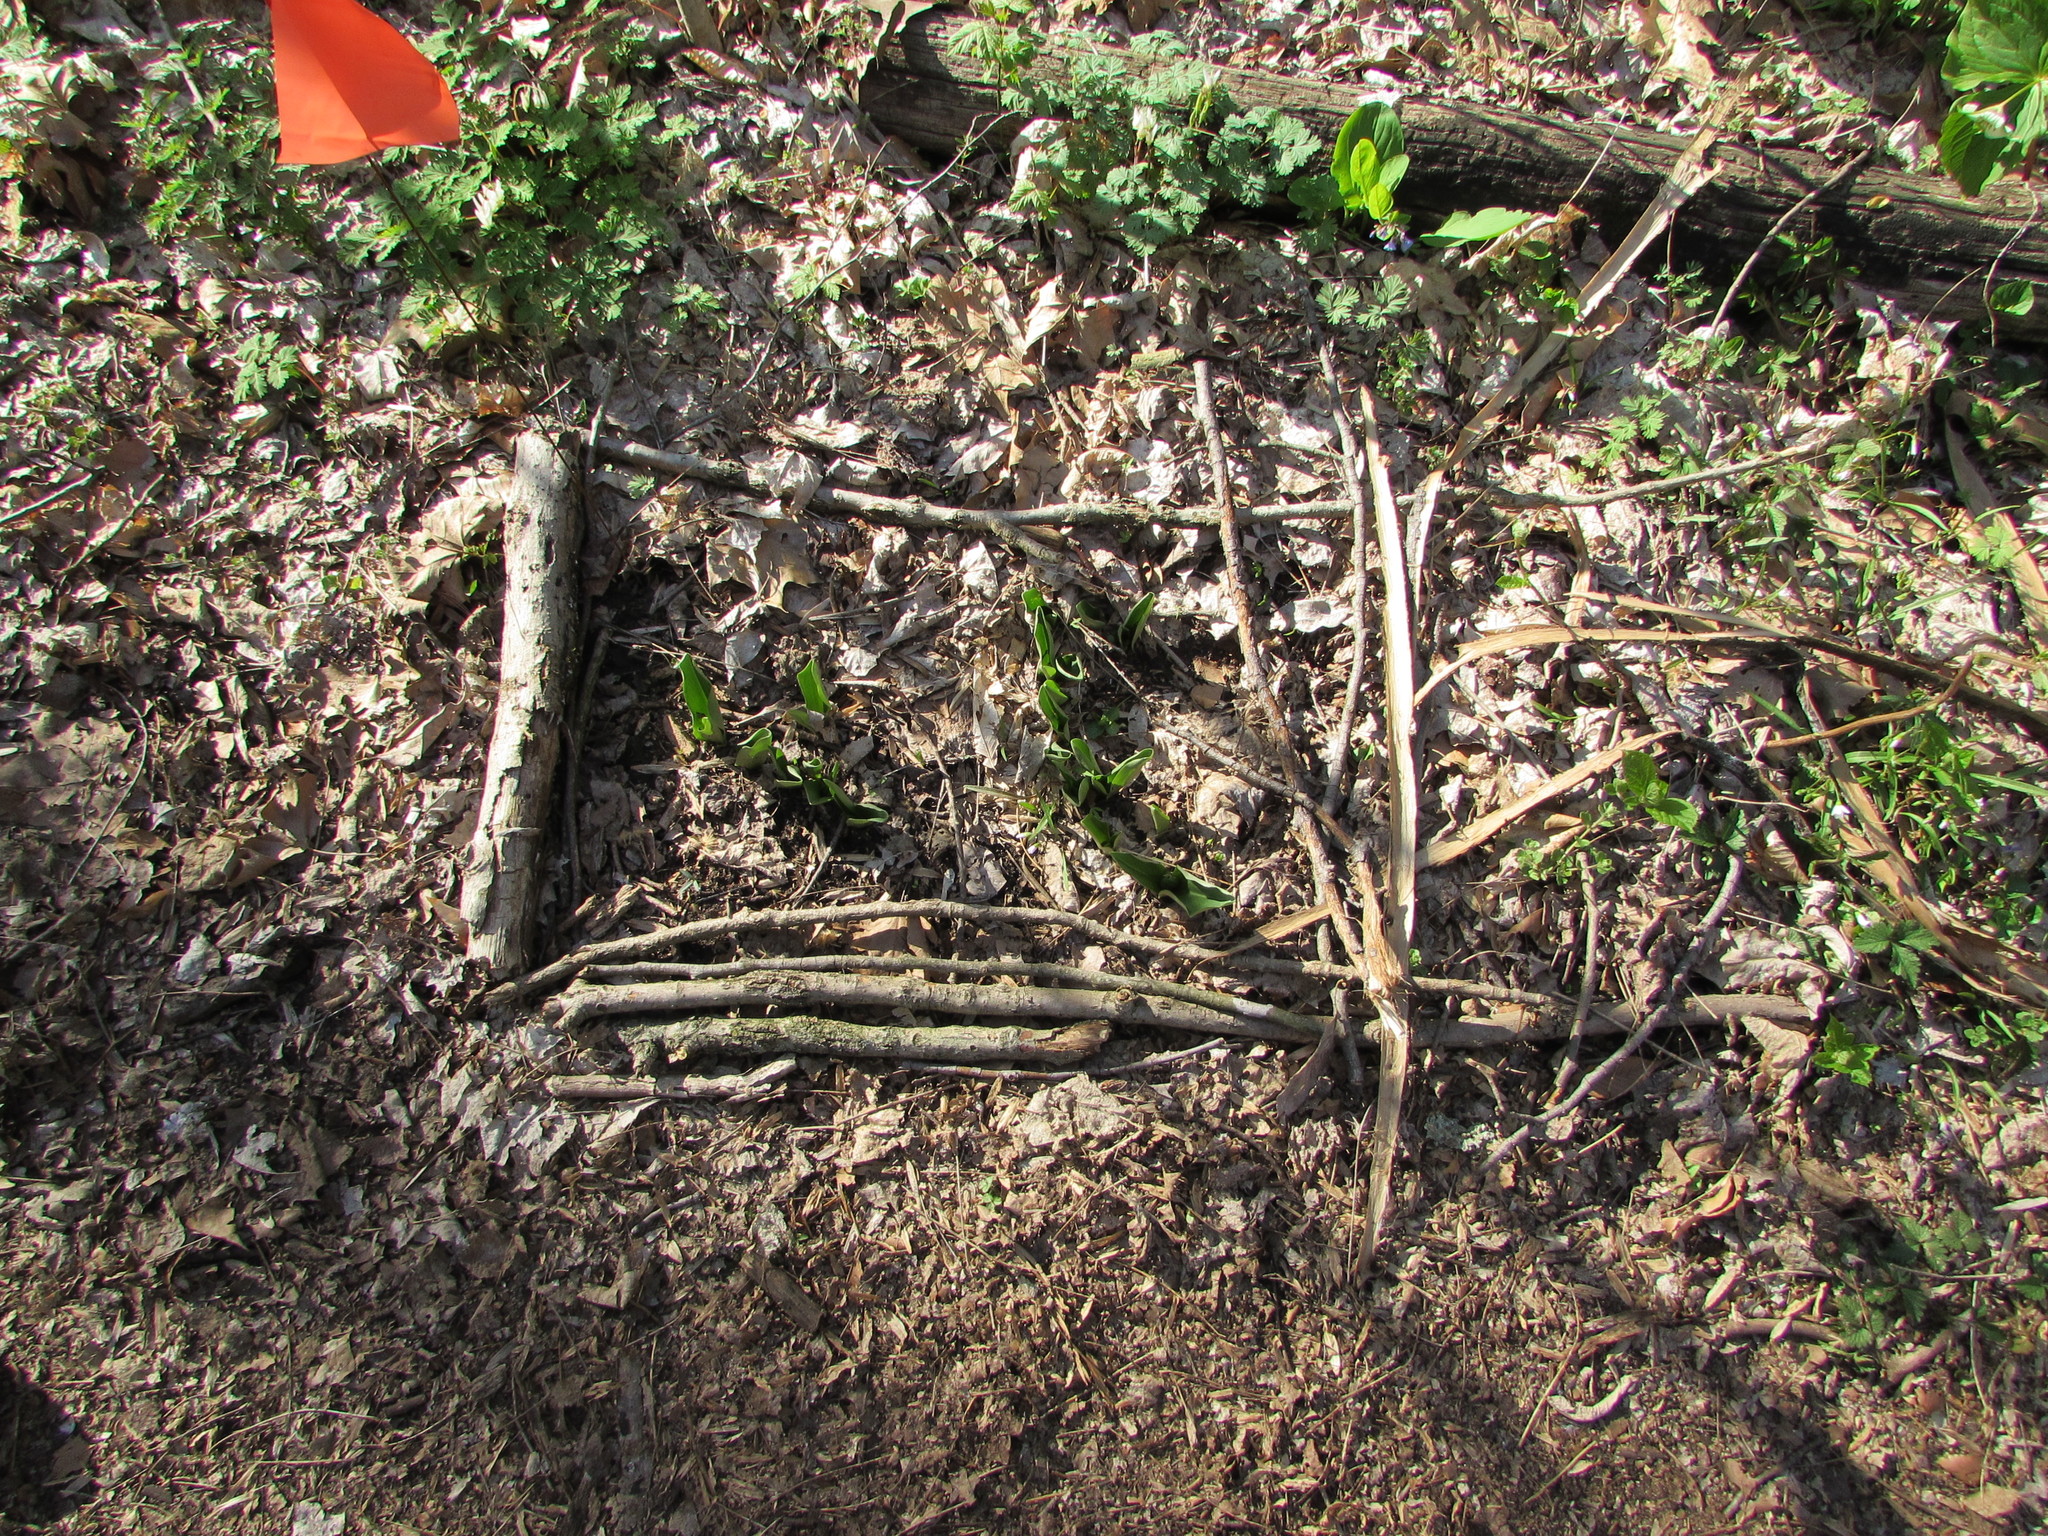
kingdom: Plantae
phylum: Tracheophyta
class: Liliopsida
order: Asparagales
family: Orchidaceae
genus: Galearis
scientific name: Galearis spectabilis
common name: Purple-hooded orchis
